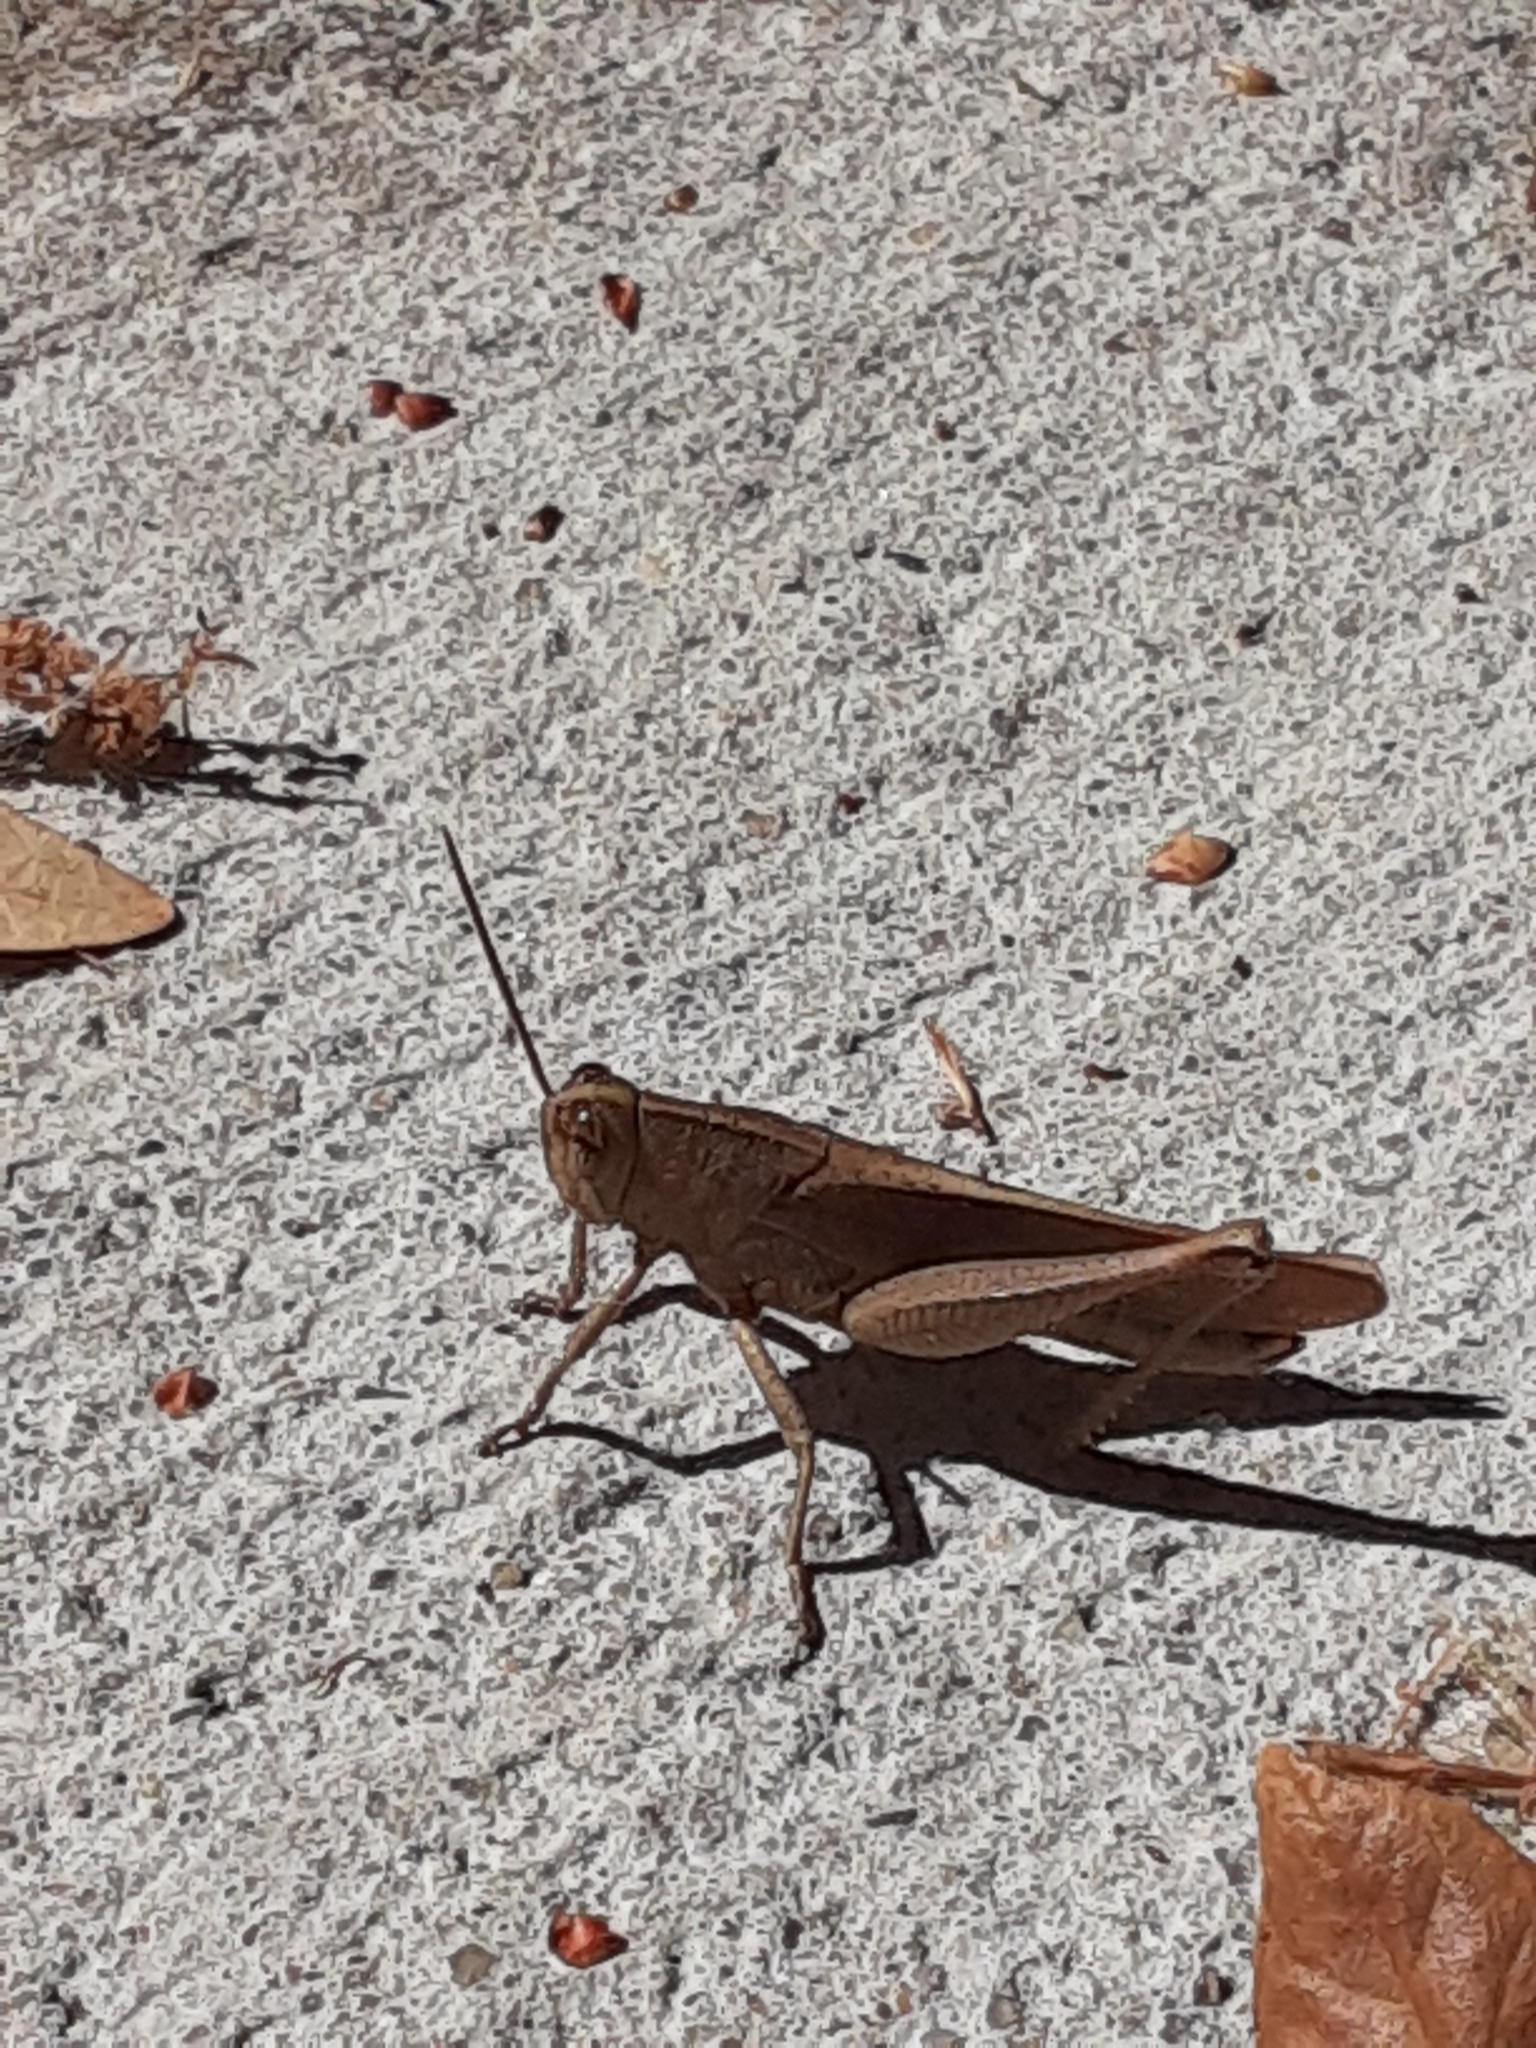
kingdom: Animalia
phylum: Arthropoda
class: Insecta
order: Orthoptera
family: Acrididae
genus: Schistocerca
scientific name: Schistocerca damnifica
